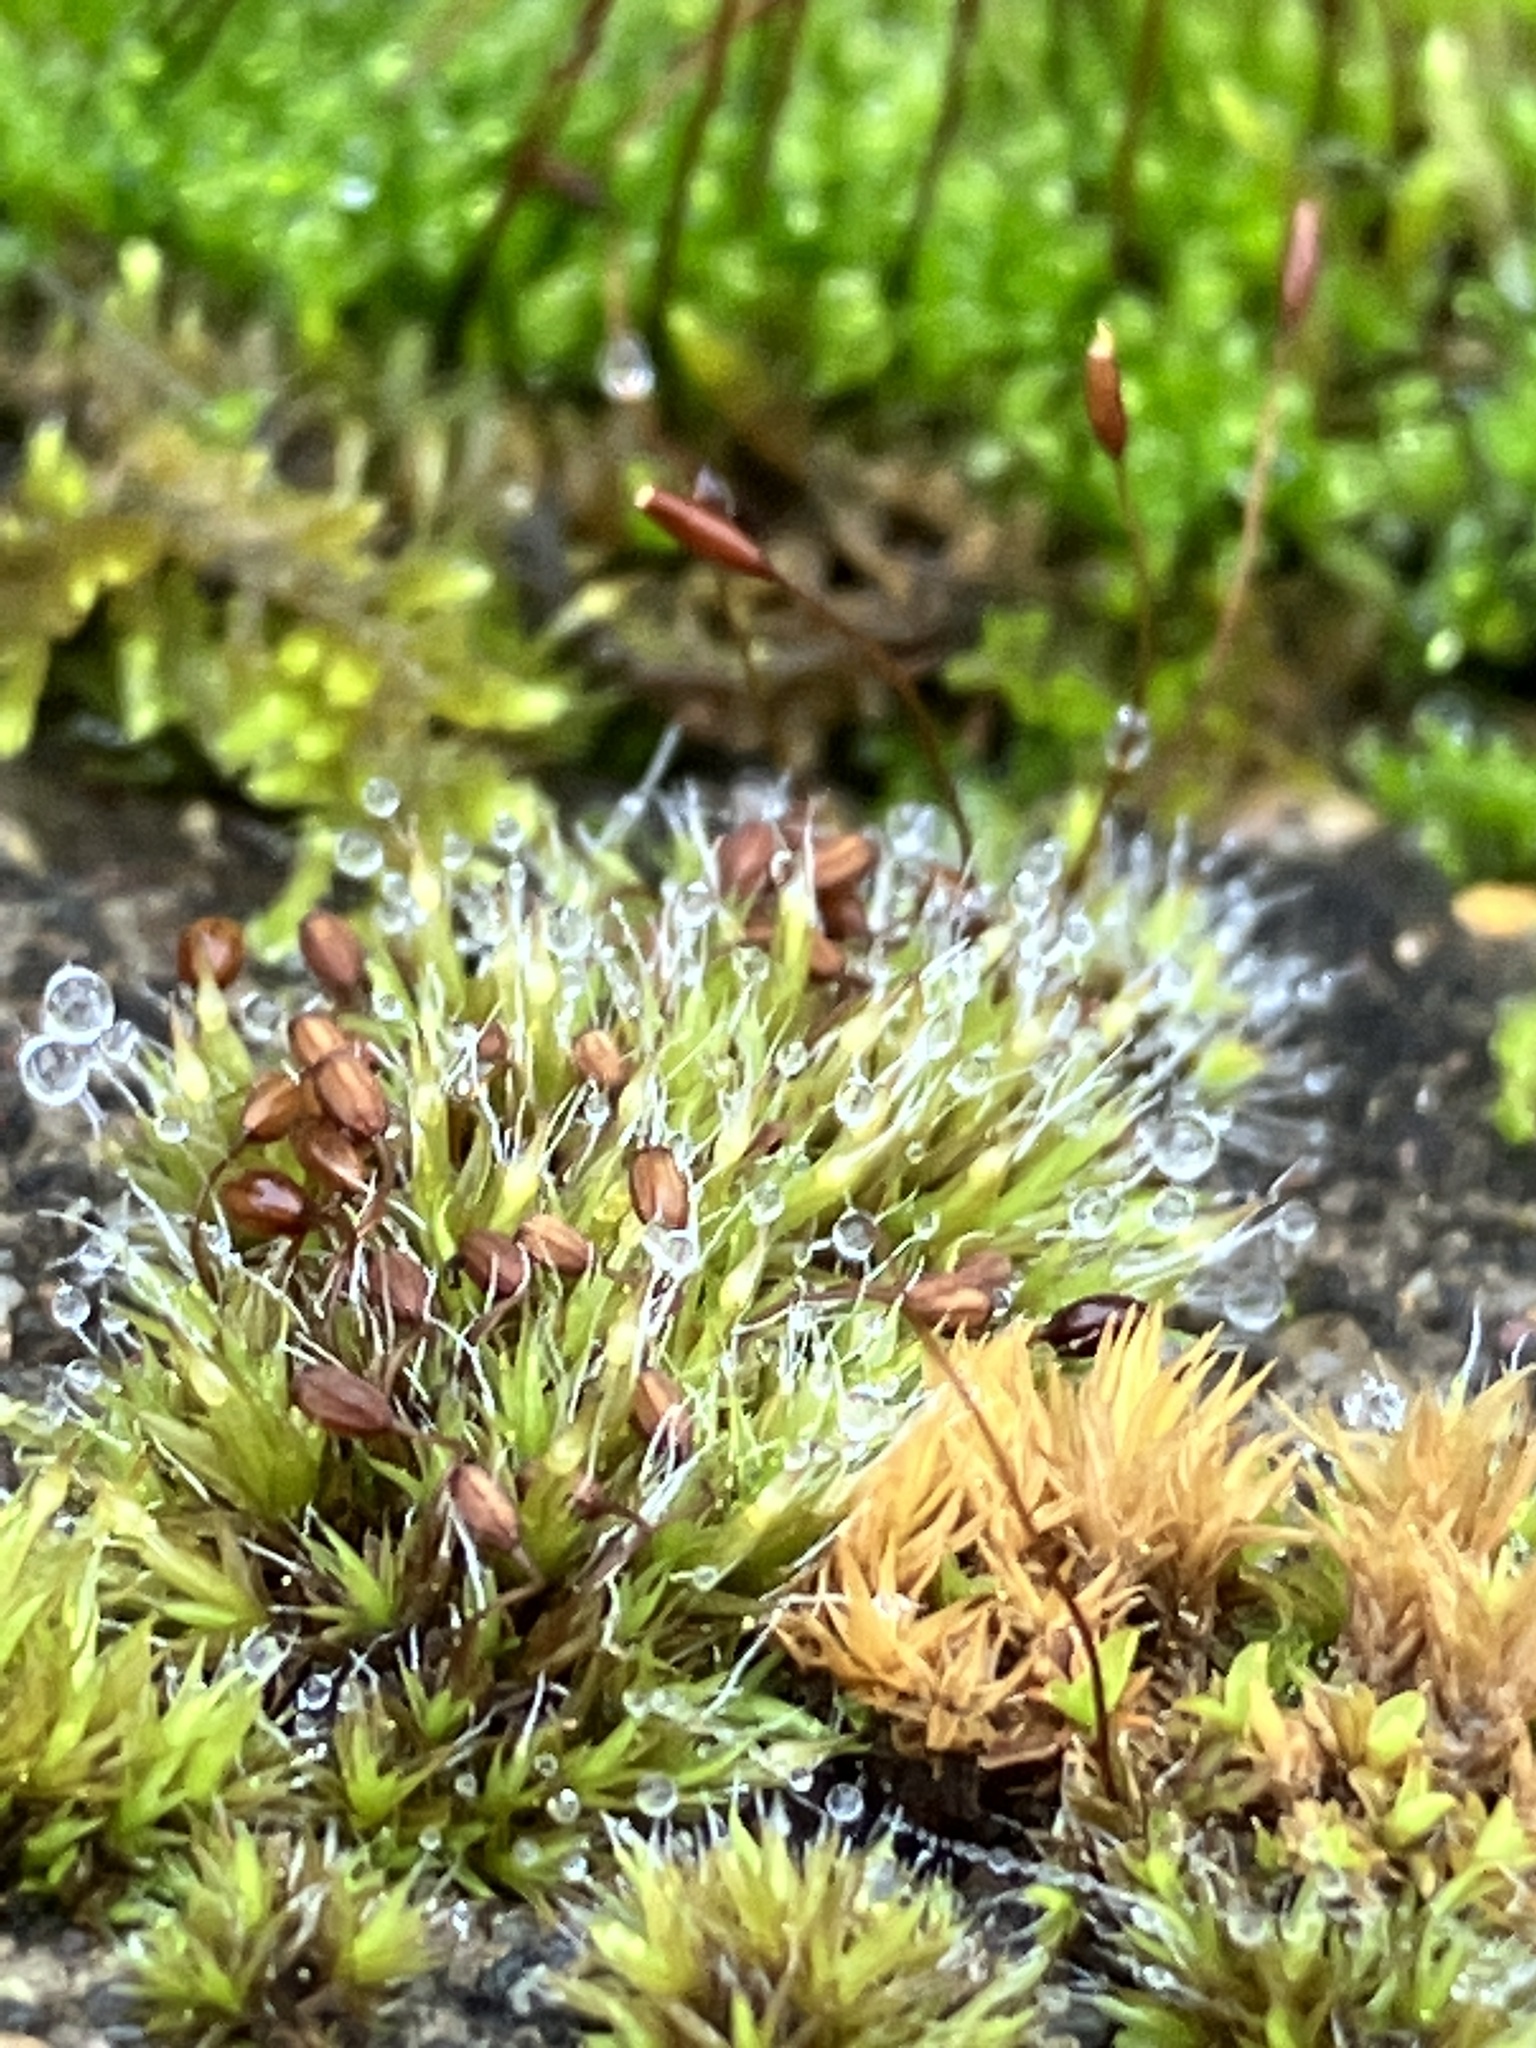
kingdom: Plantae
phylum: Bryophyta
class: Bryopsida
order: Grimmiales
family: Grimmiaceae
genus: Grimmia
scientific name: Grimmia pulvinata
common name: Grey-cushioned grimmia
